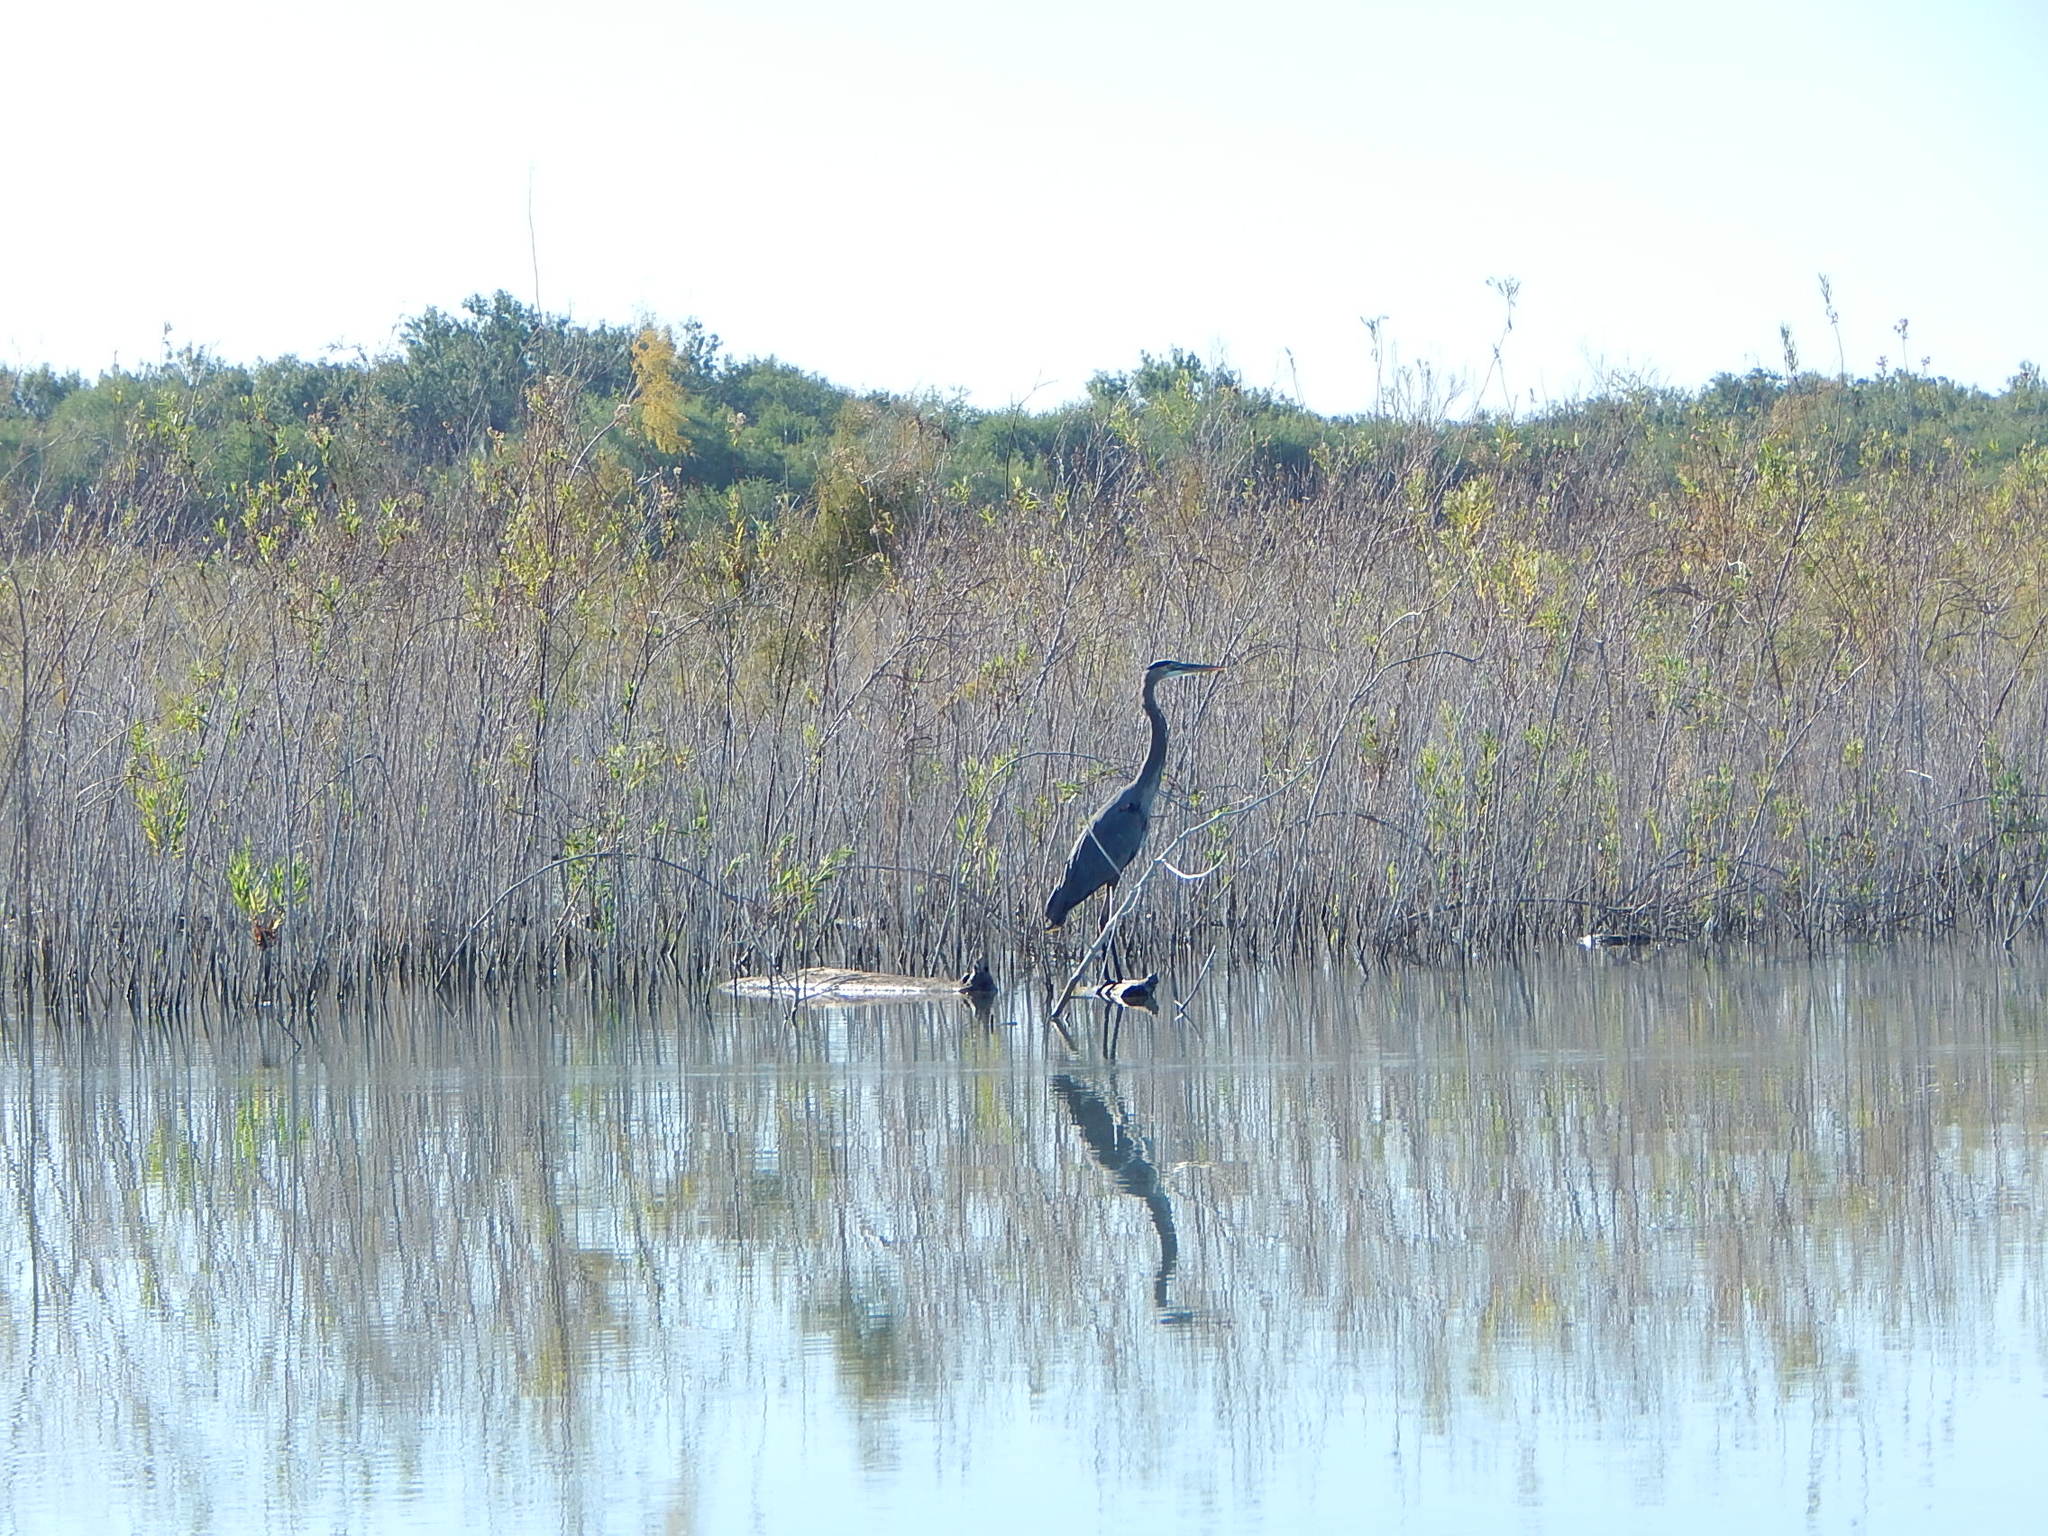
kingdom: Animalia
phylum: Chordata
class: Aves
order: Pelecaniformes
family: Ardeidae
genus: Ardea
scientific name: Ardea herodias
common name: Great blue heron
